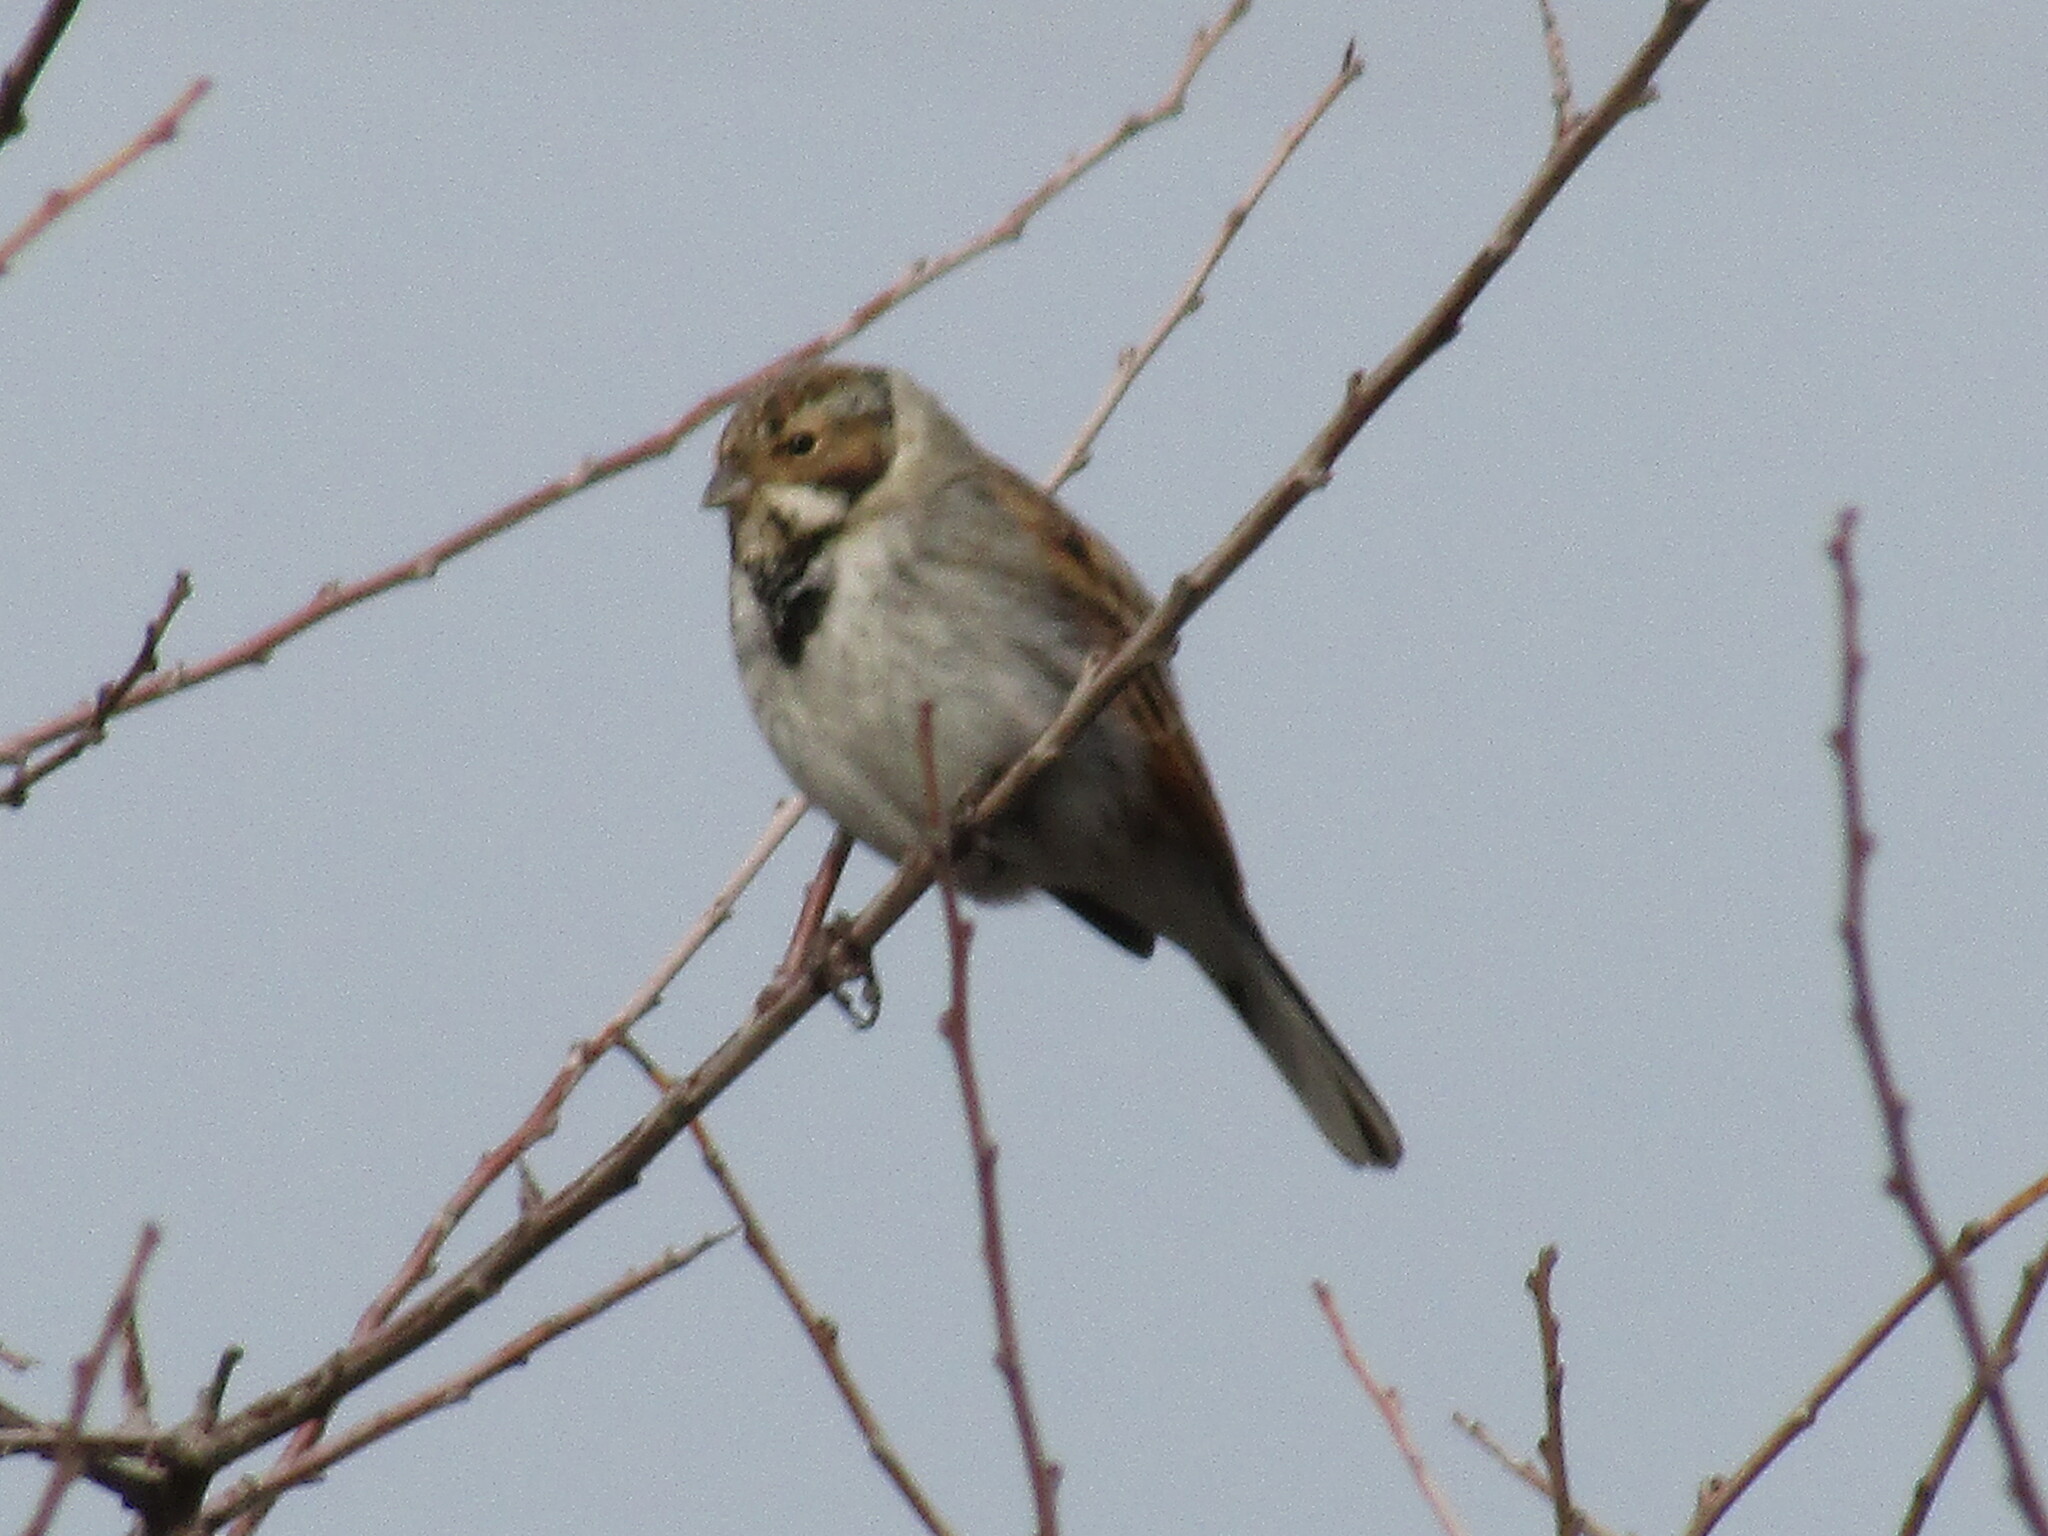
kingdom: Animalia
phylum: Chordata
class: Aves
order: Passeriformes
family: Emberizidae
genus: Emberiza
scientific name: Emberiza schoeniclus
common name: Reed bunting
